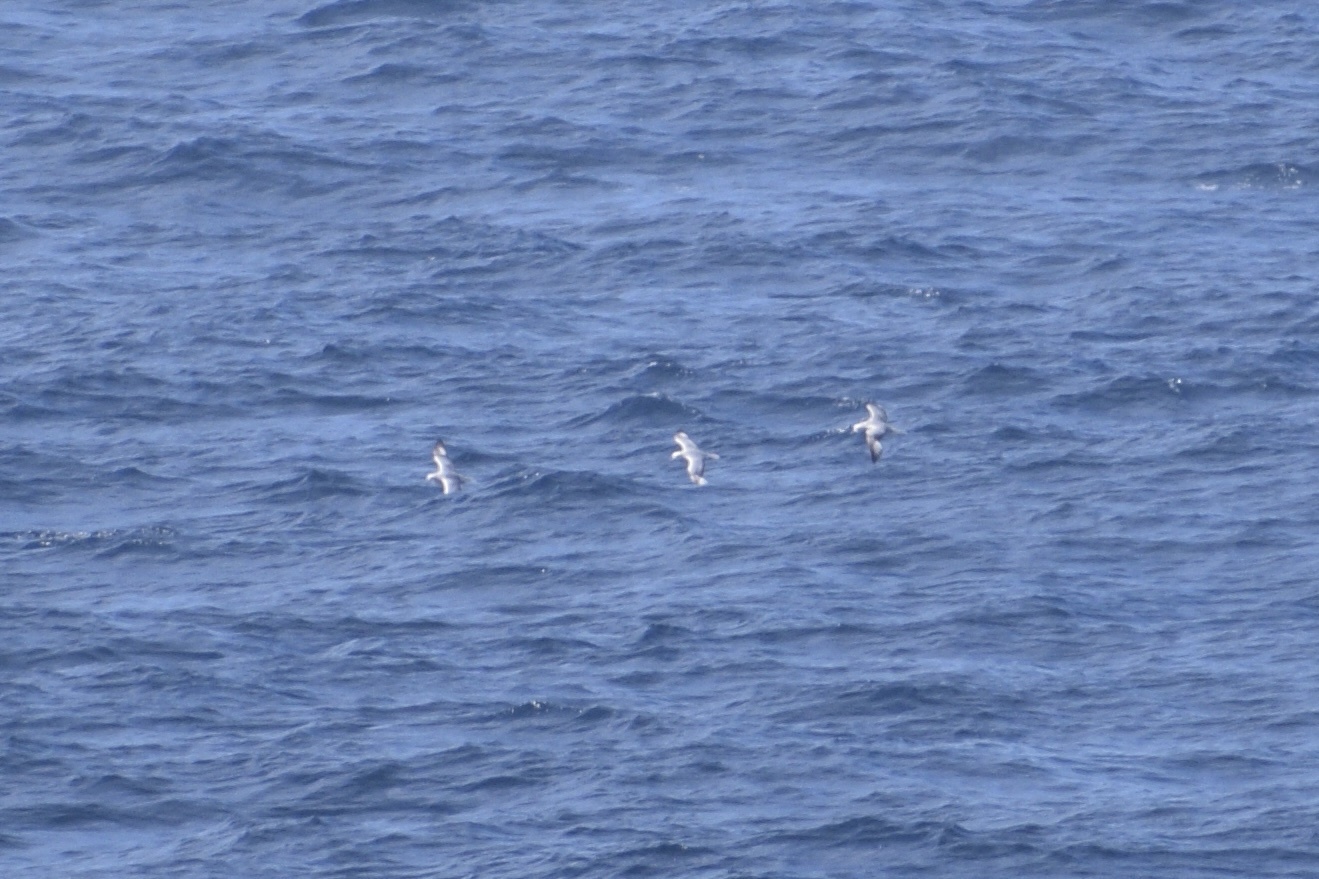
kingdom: Animalia
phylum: Chordata
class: Aves
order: Procellariiformes
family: Procellariidae
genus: Fulmarus
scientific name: Fulmarus glacialoides
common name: Southern fulmar
